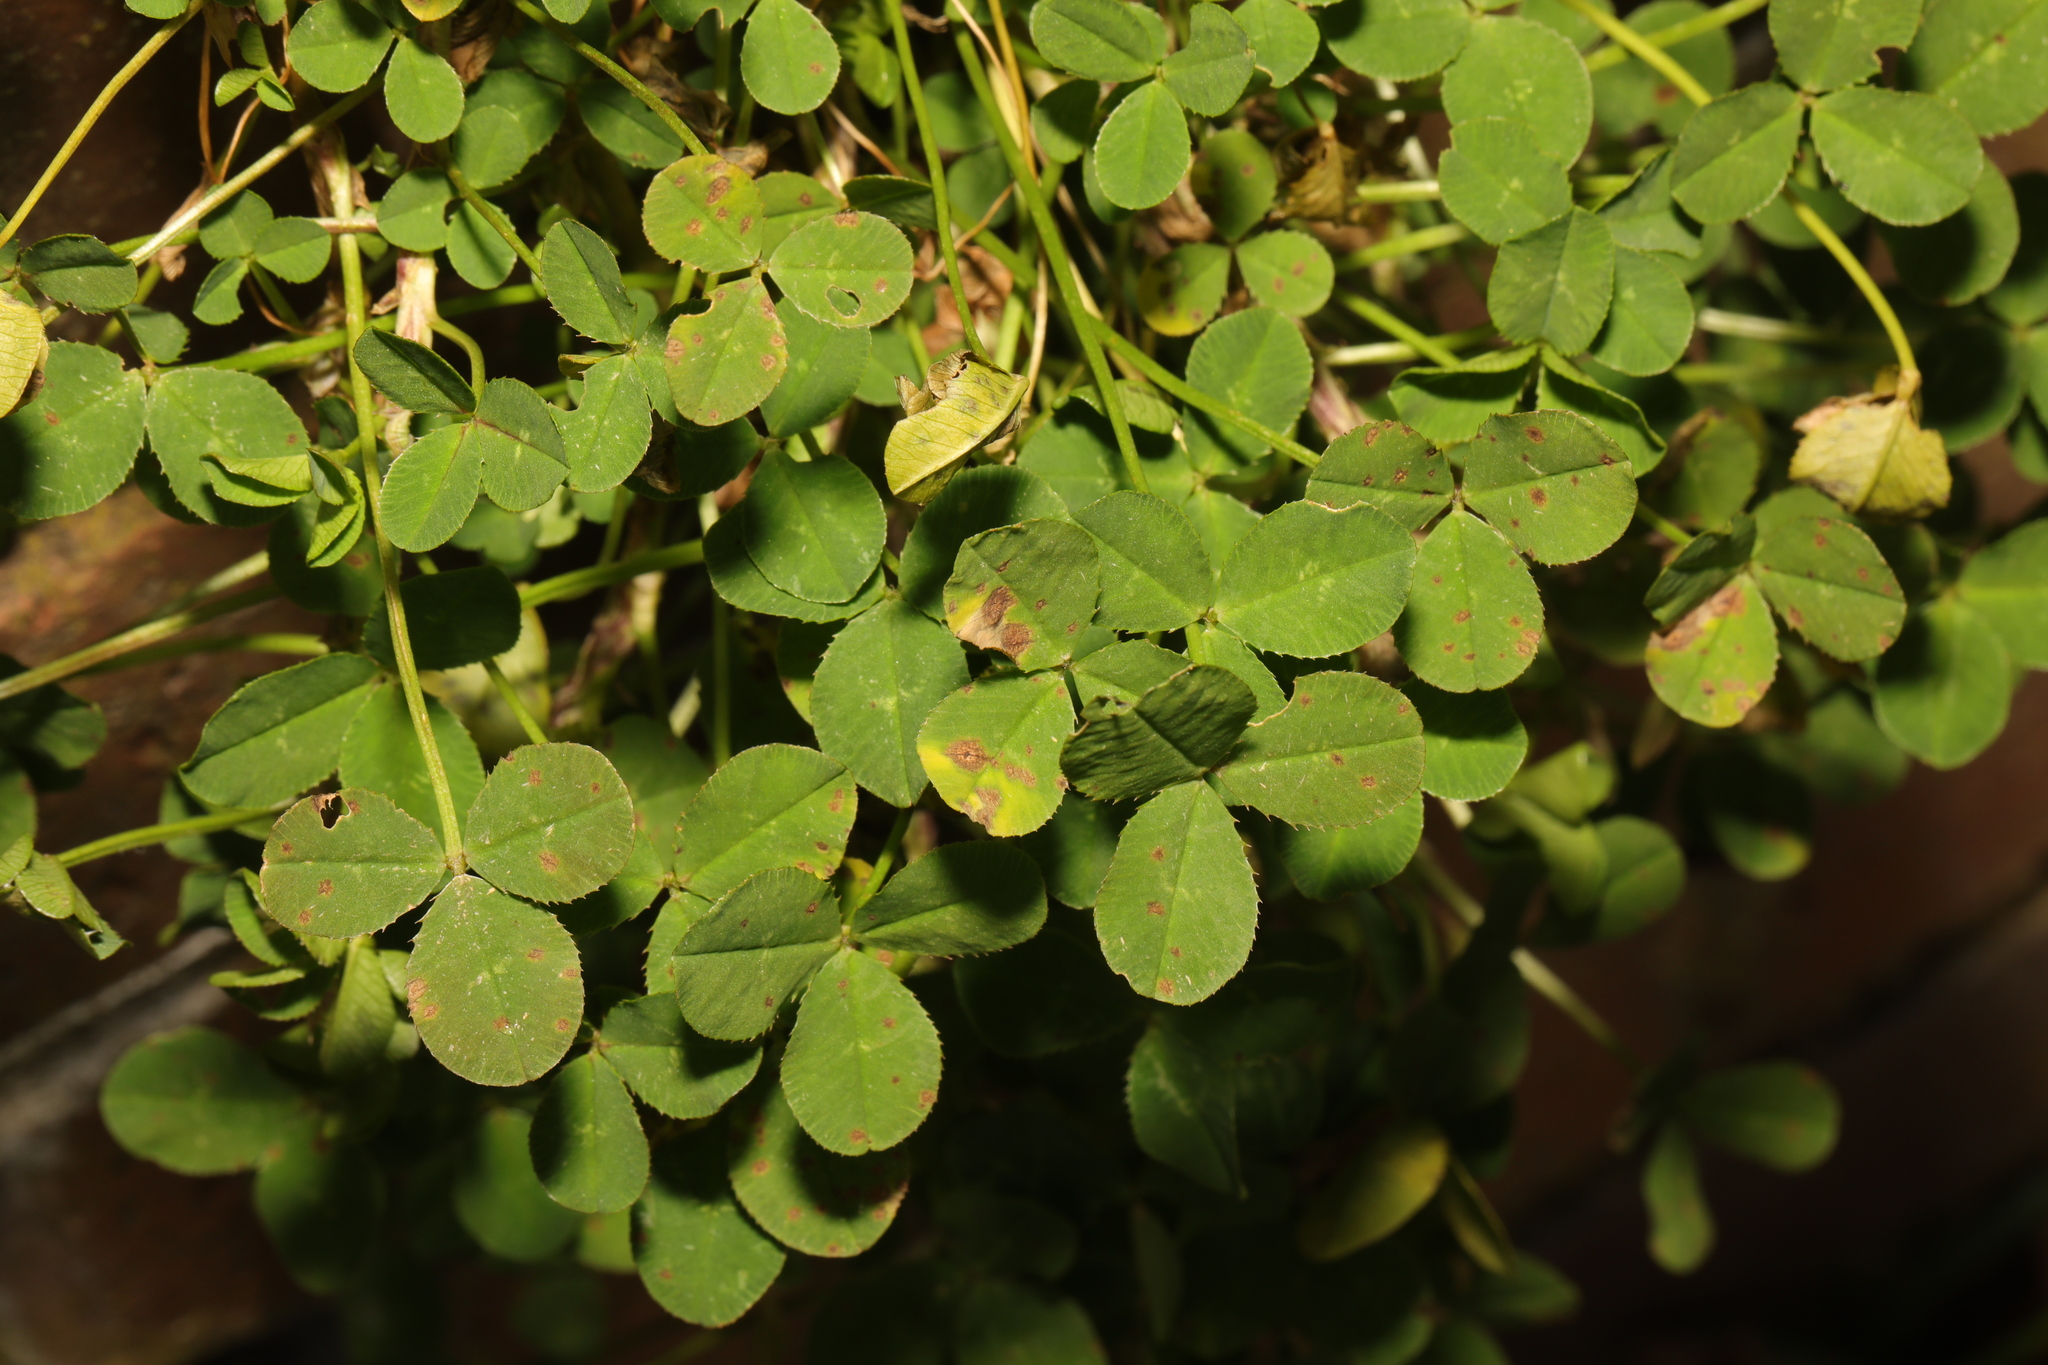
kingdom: Plantae
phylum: Tracheophyta
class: Magnoliopsida
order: Fabales
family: Fabaceae
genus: Trifolium
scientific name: Trifolium repens
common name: White clover
